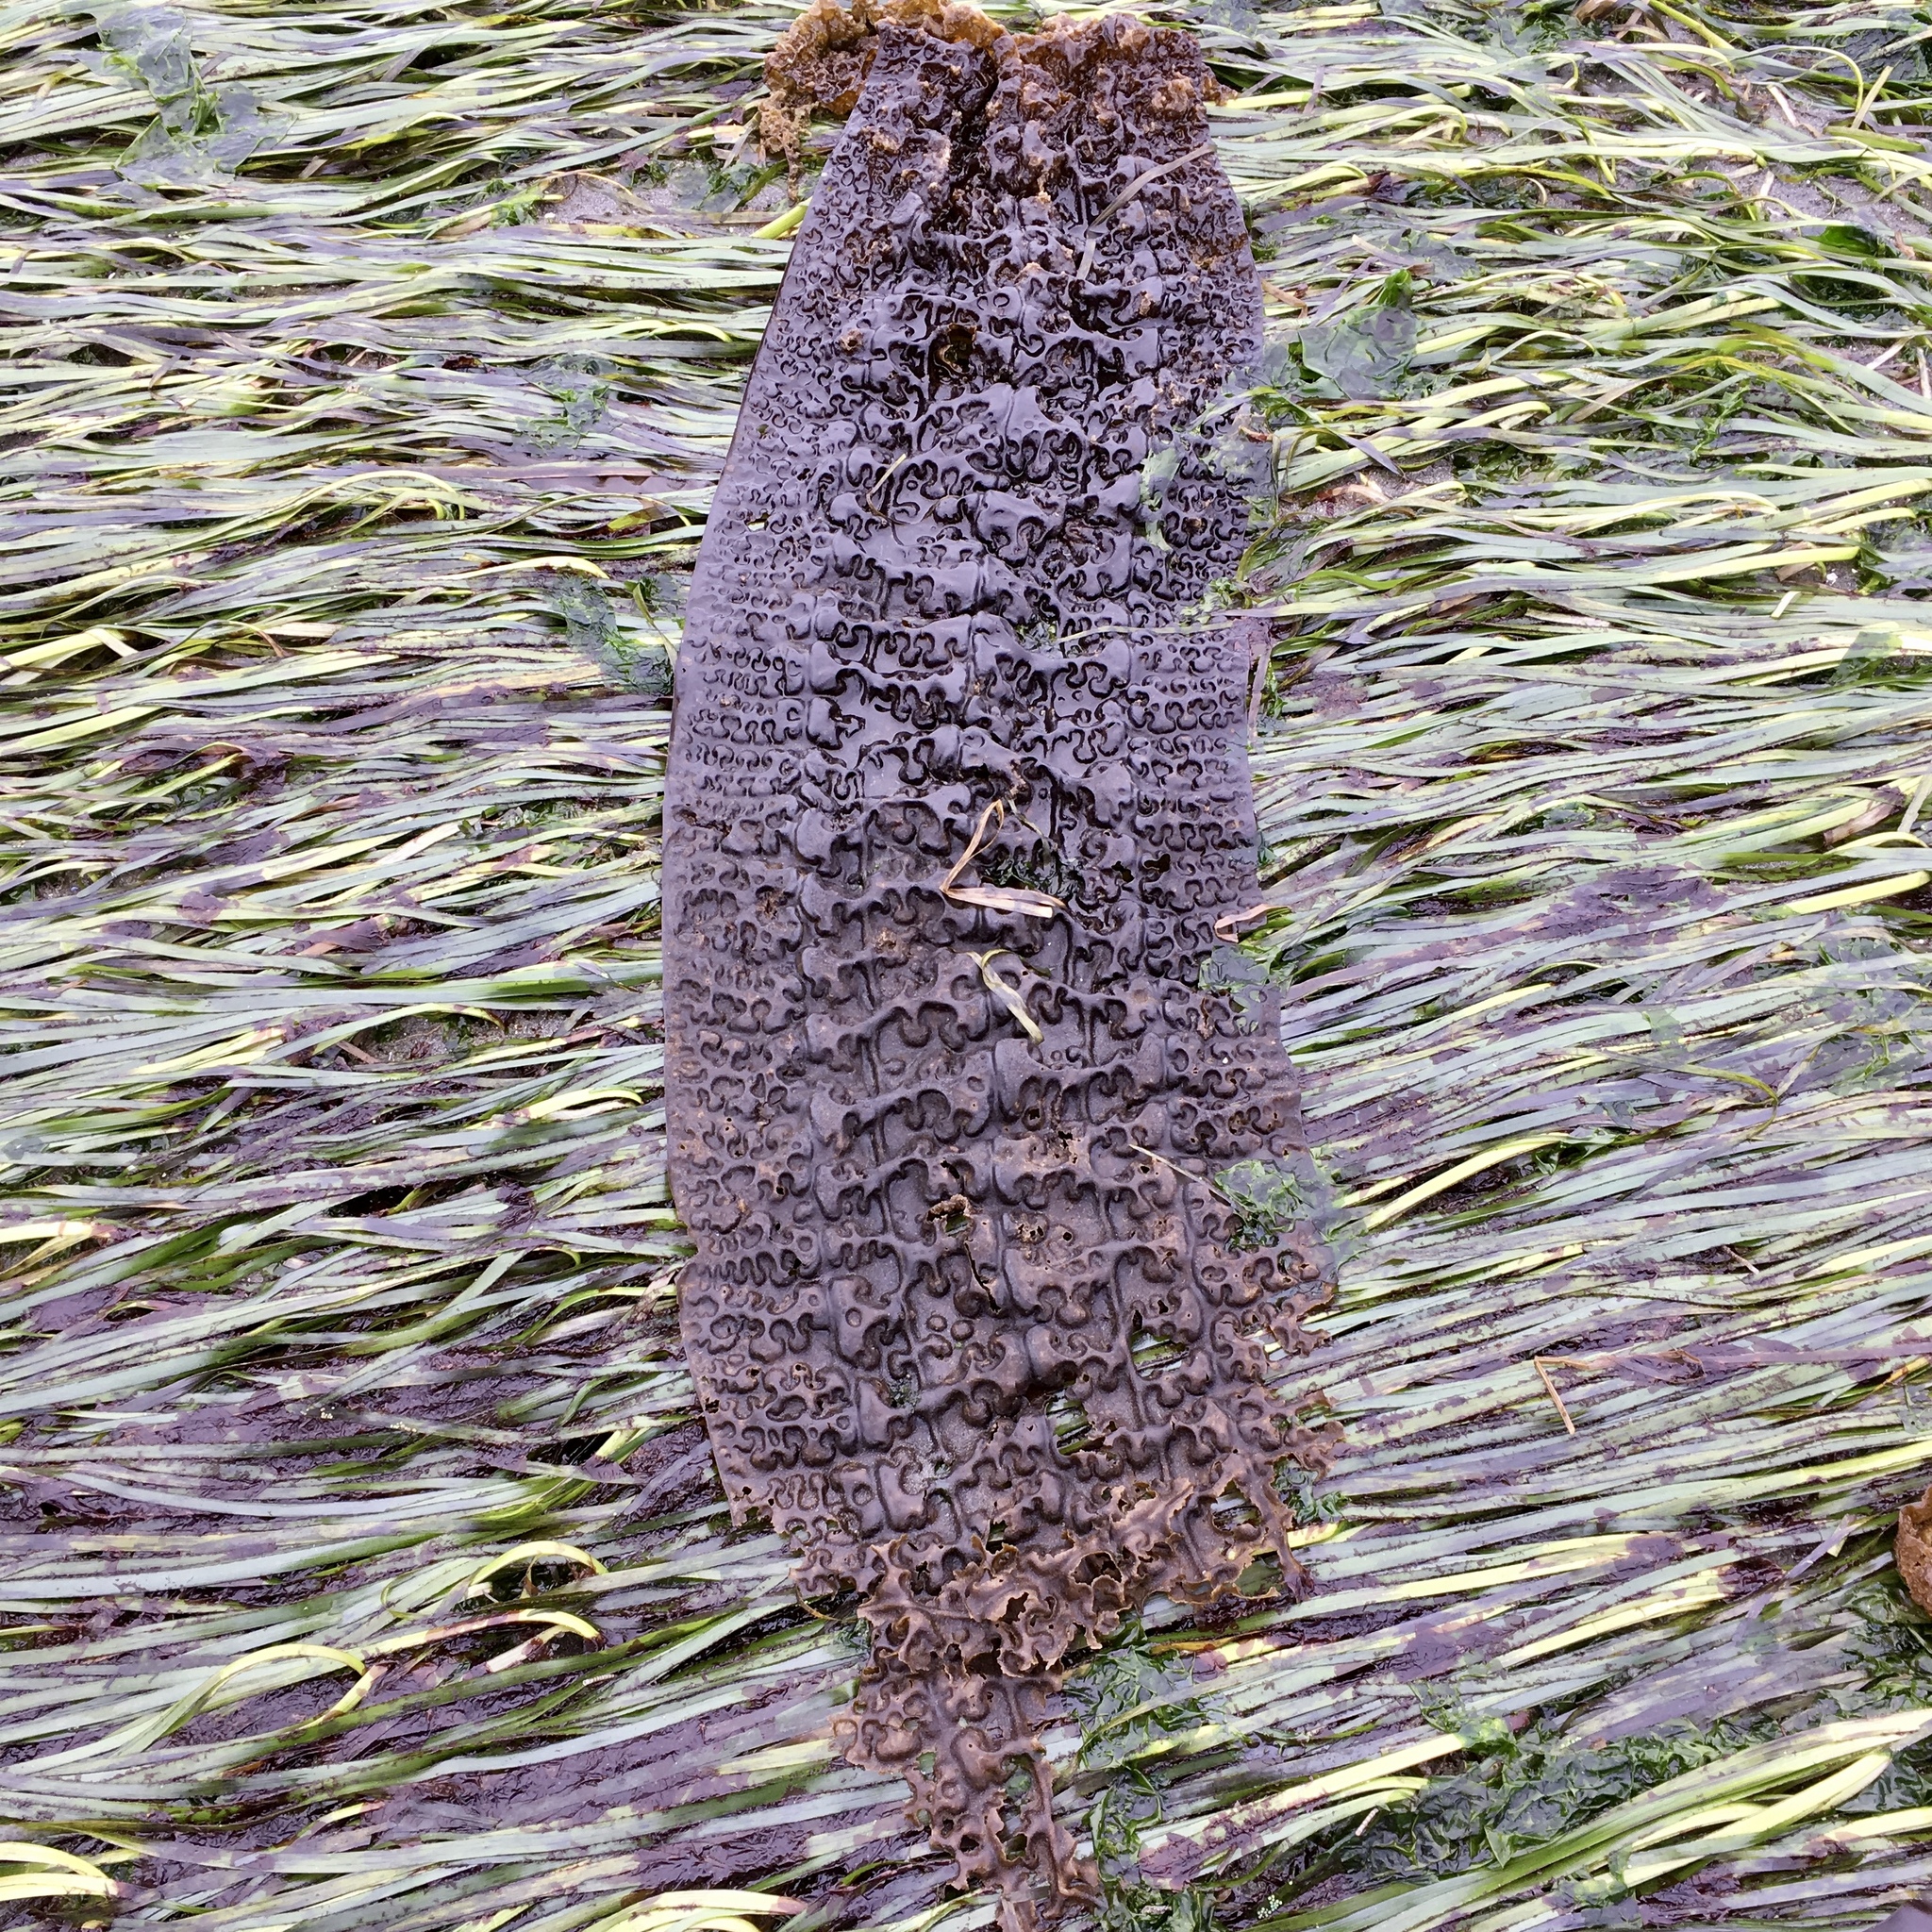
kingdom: Chromista
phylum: Ochrophyta
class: Phaeophyceae
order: Laminariales
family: Costariaceae
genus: Costaria
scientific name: Costaria costata
